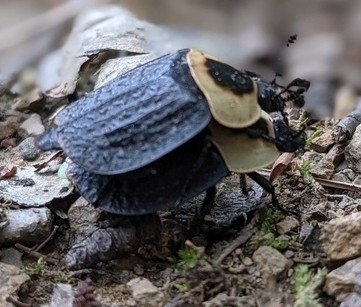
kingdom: Animalia
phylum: Arthropoda
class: Insecta
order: Coleoptera
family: Staphylinidae
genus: Necrophila
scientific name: Necrophila americana
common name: American carrion beetle
